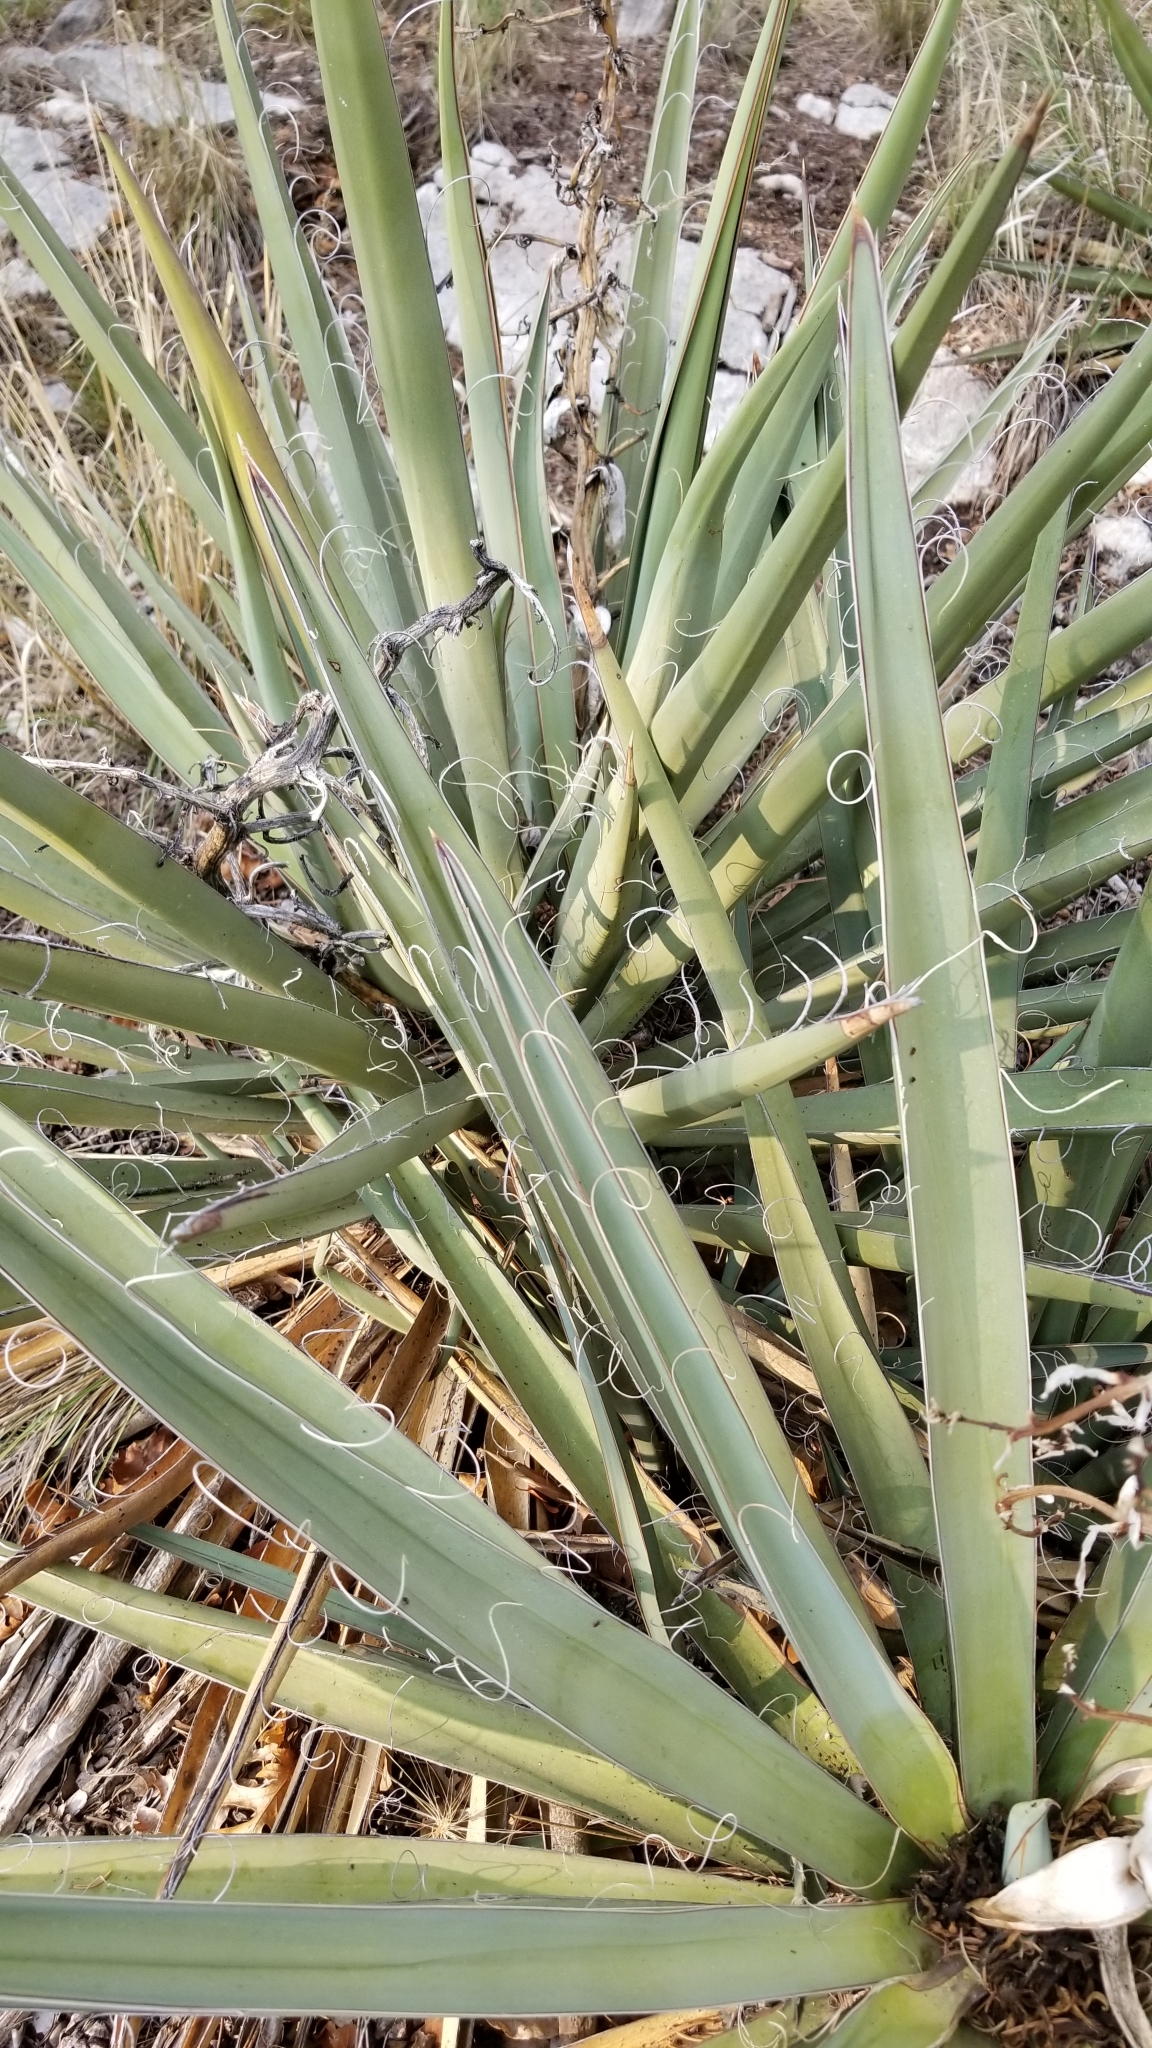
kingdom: Plantae
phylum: Tracheophyta
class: Liliopsida
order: Asparagales
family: Asparagaceae
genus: Yucca
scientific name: Yucca baccata
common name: Banana yucca
